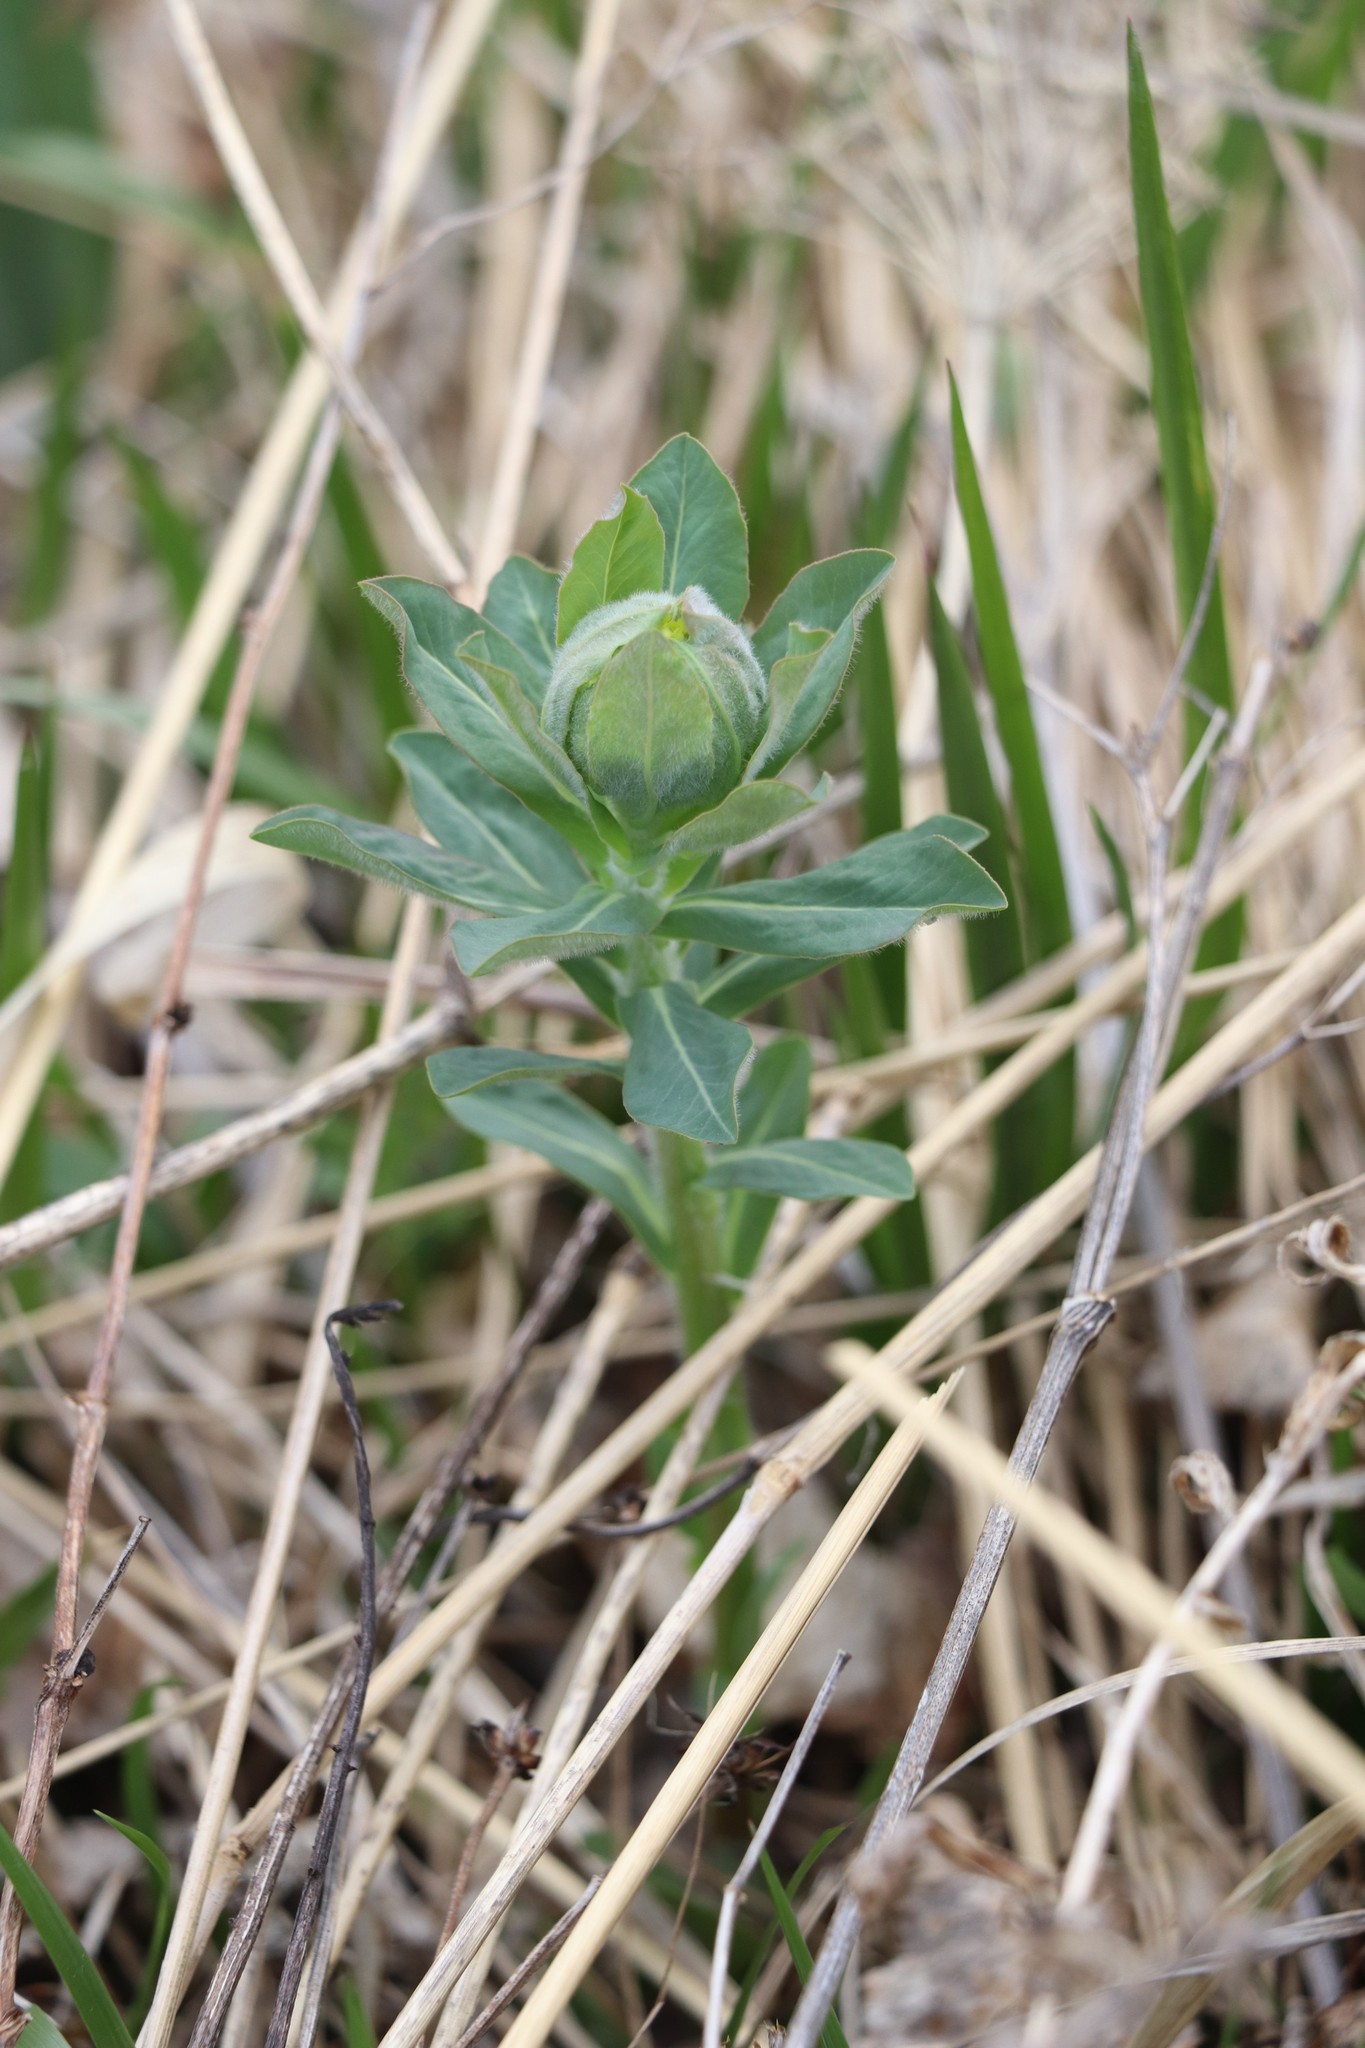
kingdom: Plantae
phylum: Tracheophyta
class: Magnoliopsida
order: Malpighiales
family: Euphorbiaceae
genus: Euphorbia
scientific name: Euphorbia pilosa
